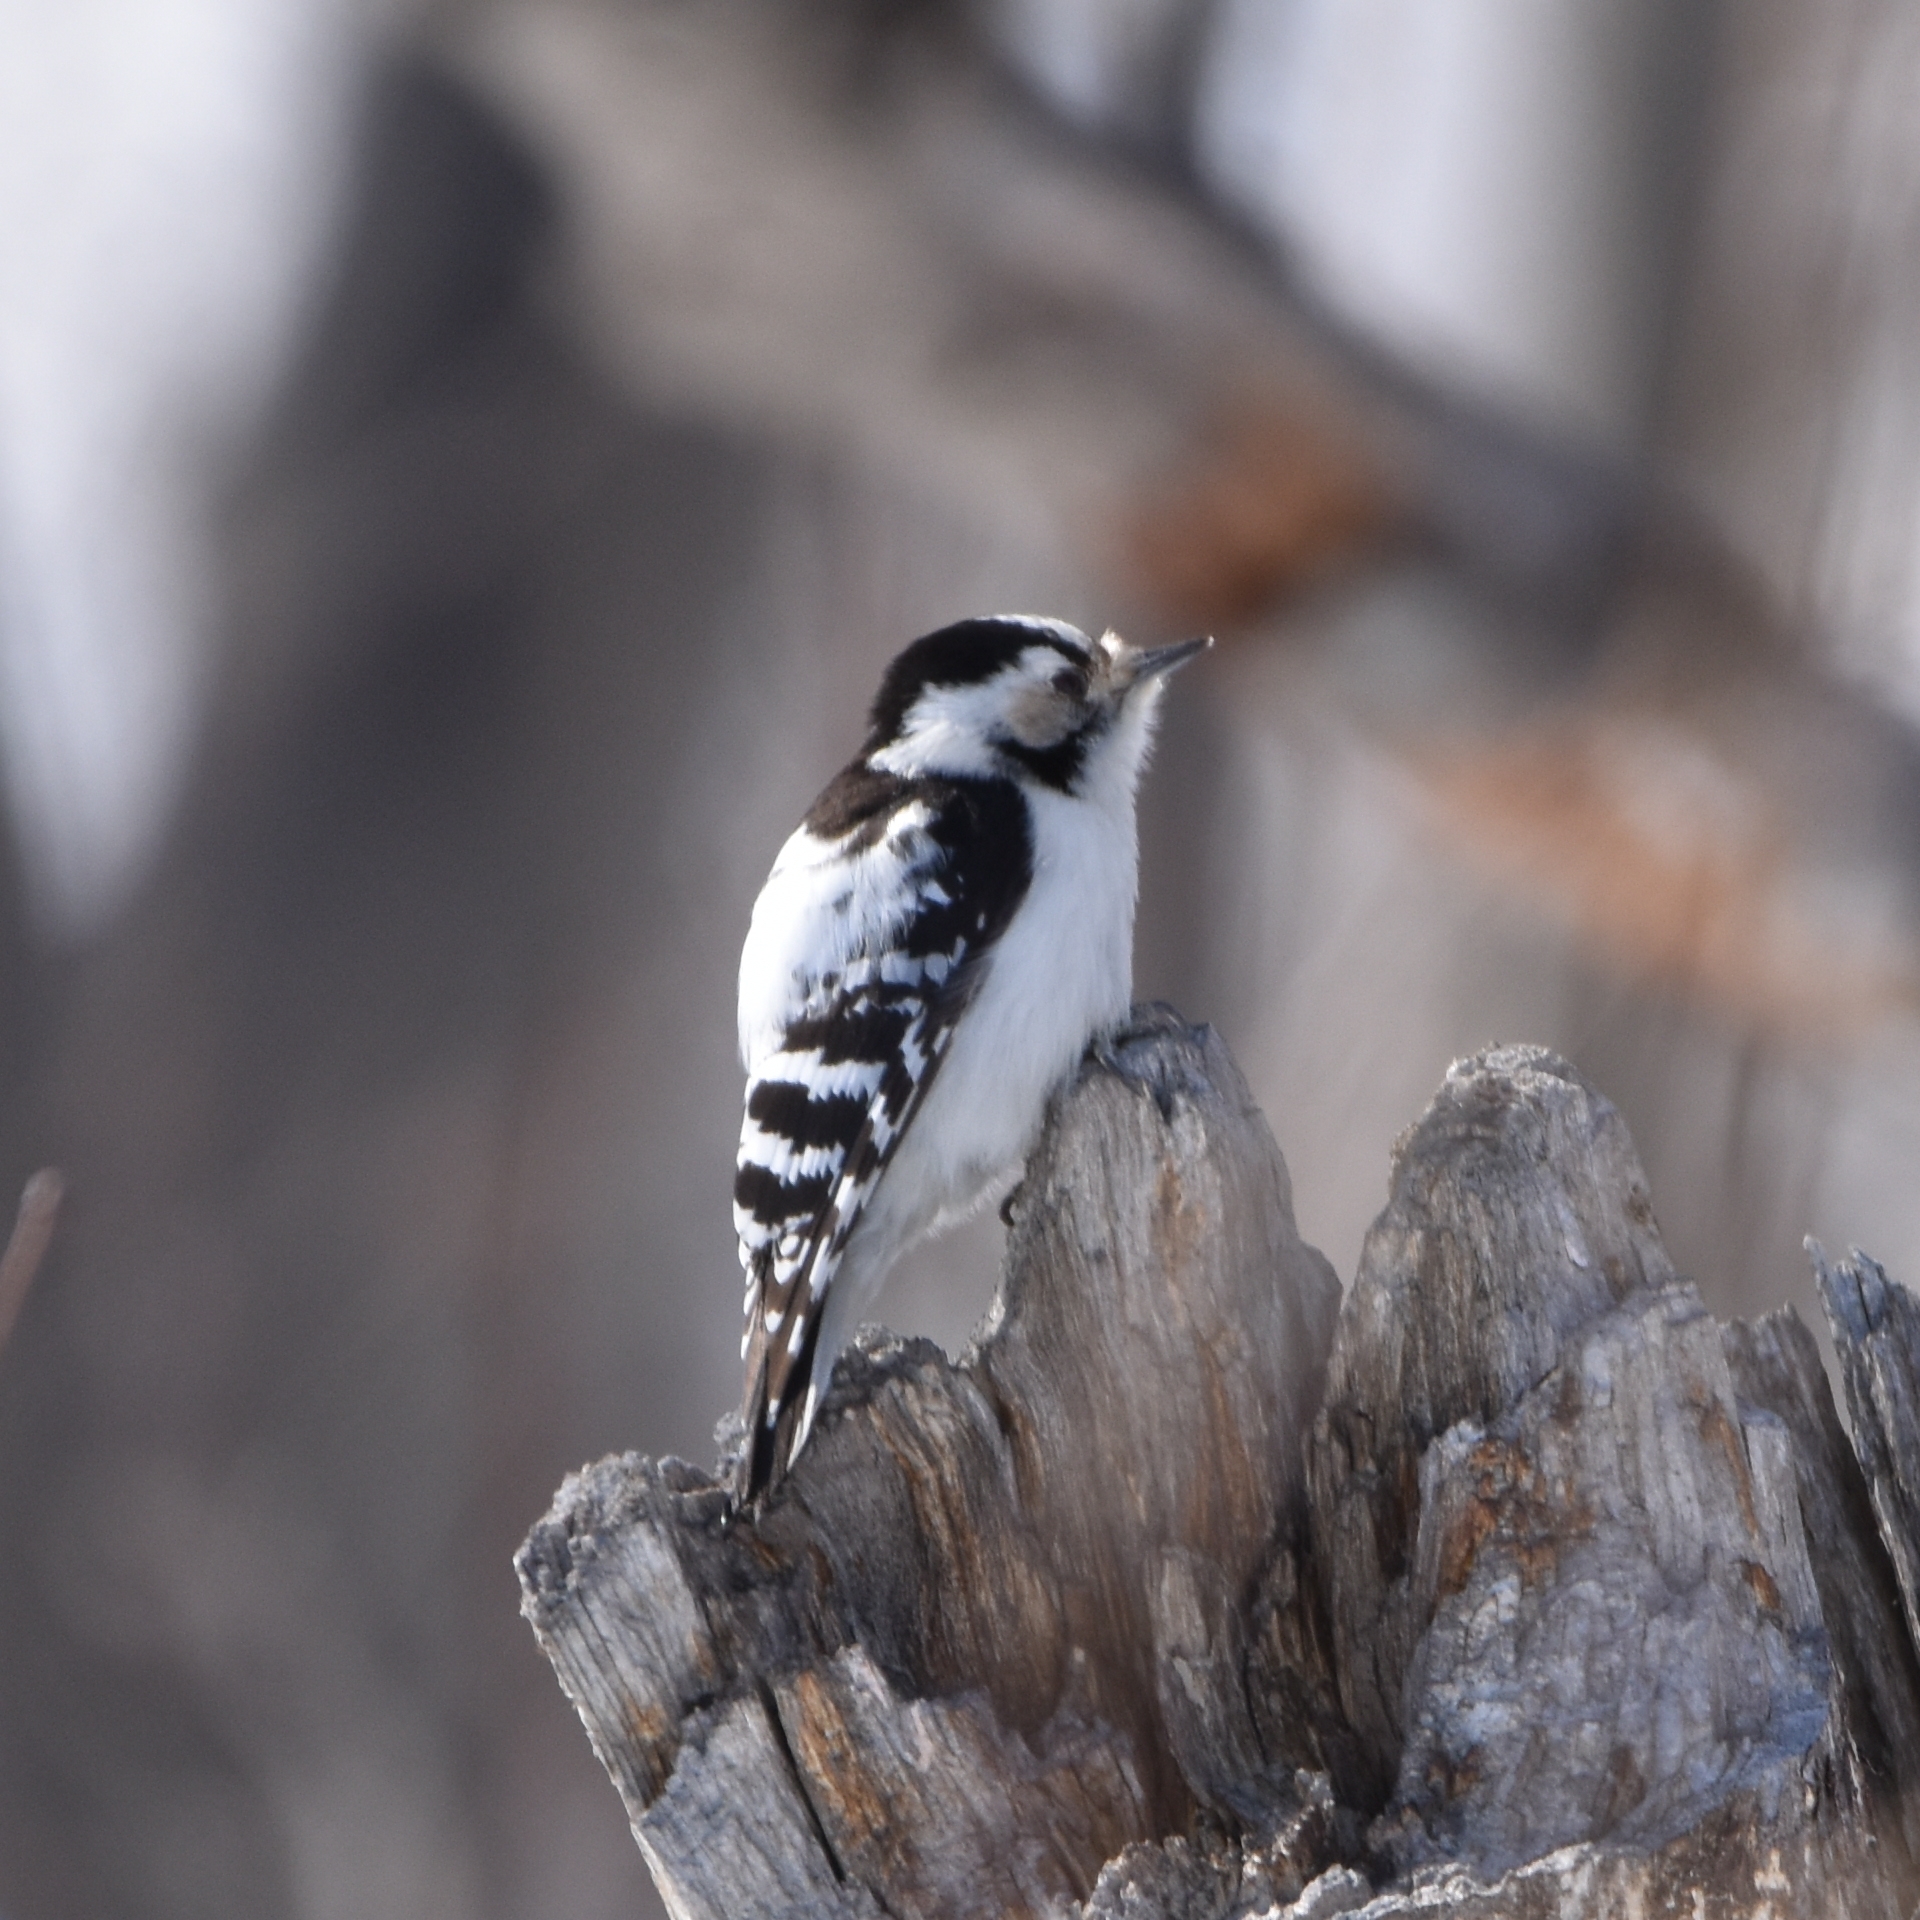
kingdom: Animalia
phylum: Chordata
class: Aves
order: Piciformes
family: Picidae
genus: Dryobates
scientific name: Dryobates minor
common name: Lesser spotted woodpecker
